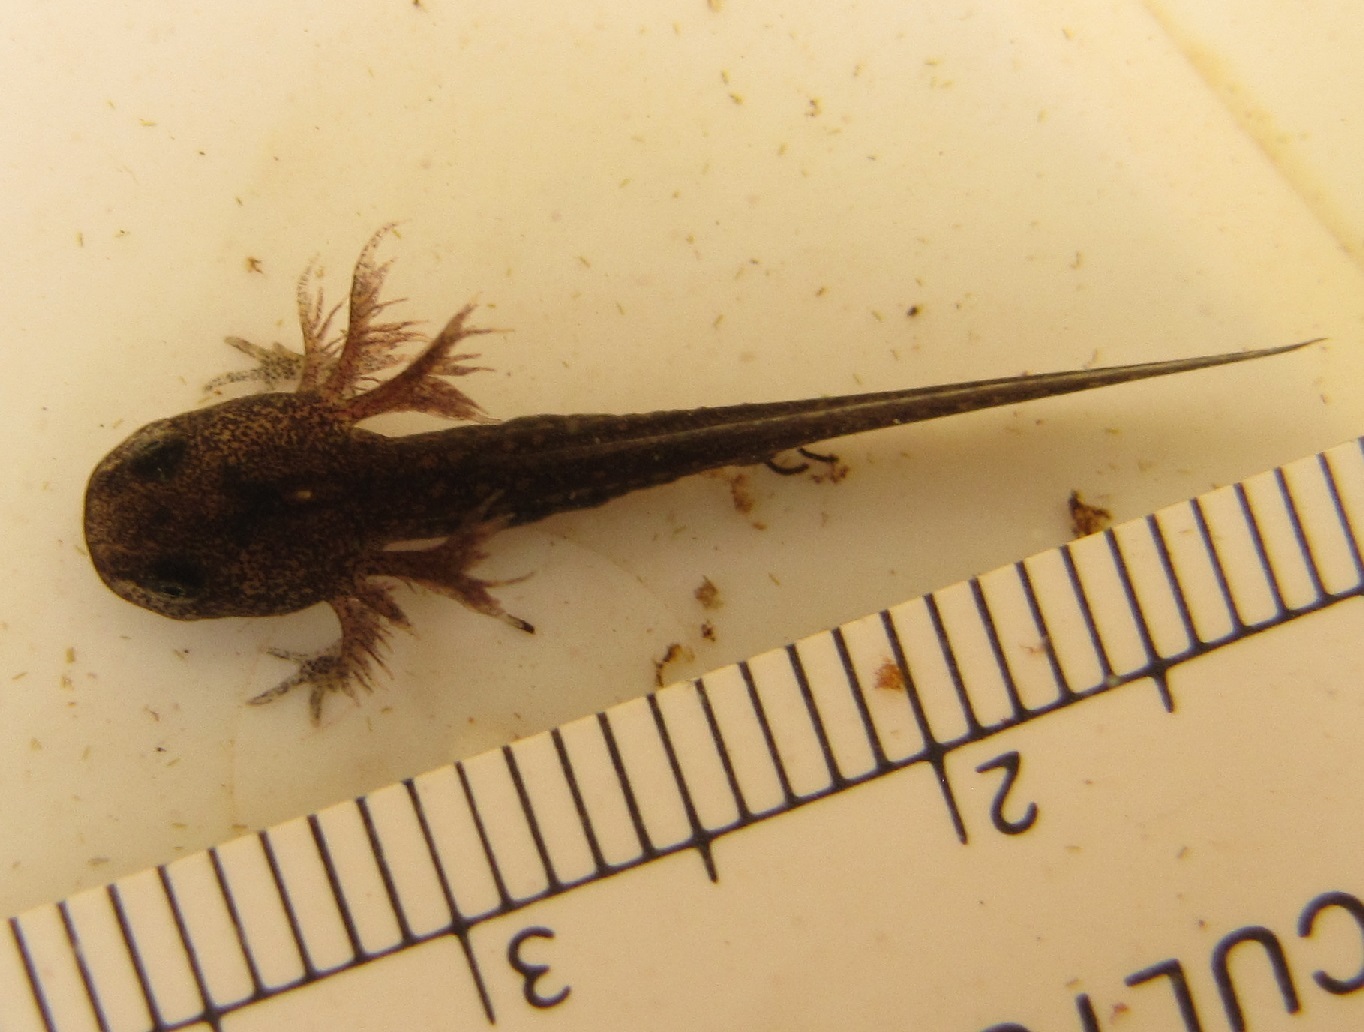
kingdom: Animalia
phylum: Chordata
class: Amphibia
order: Caudata
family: Ambystomatidae
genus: Ambystoma
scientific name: Ambystoma opacum
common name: Marbled salamander
